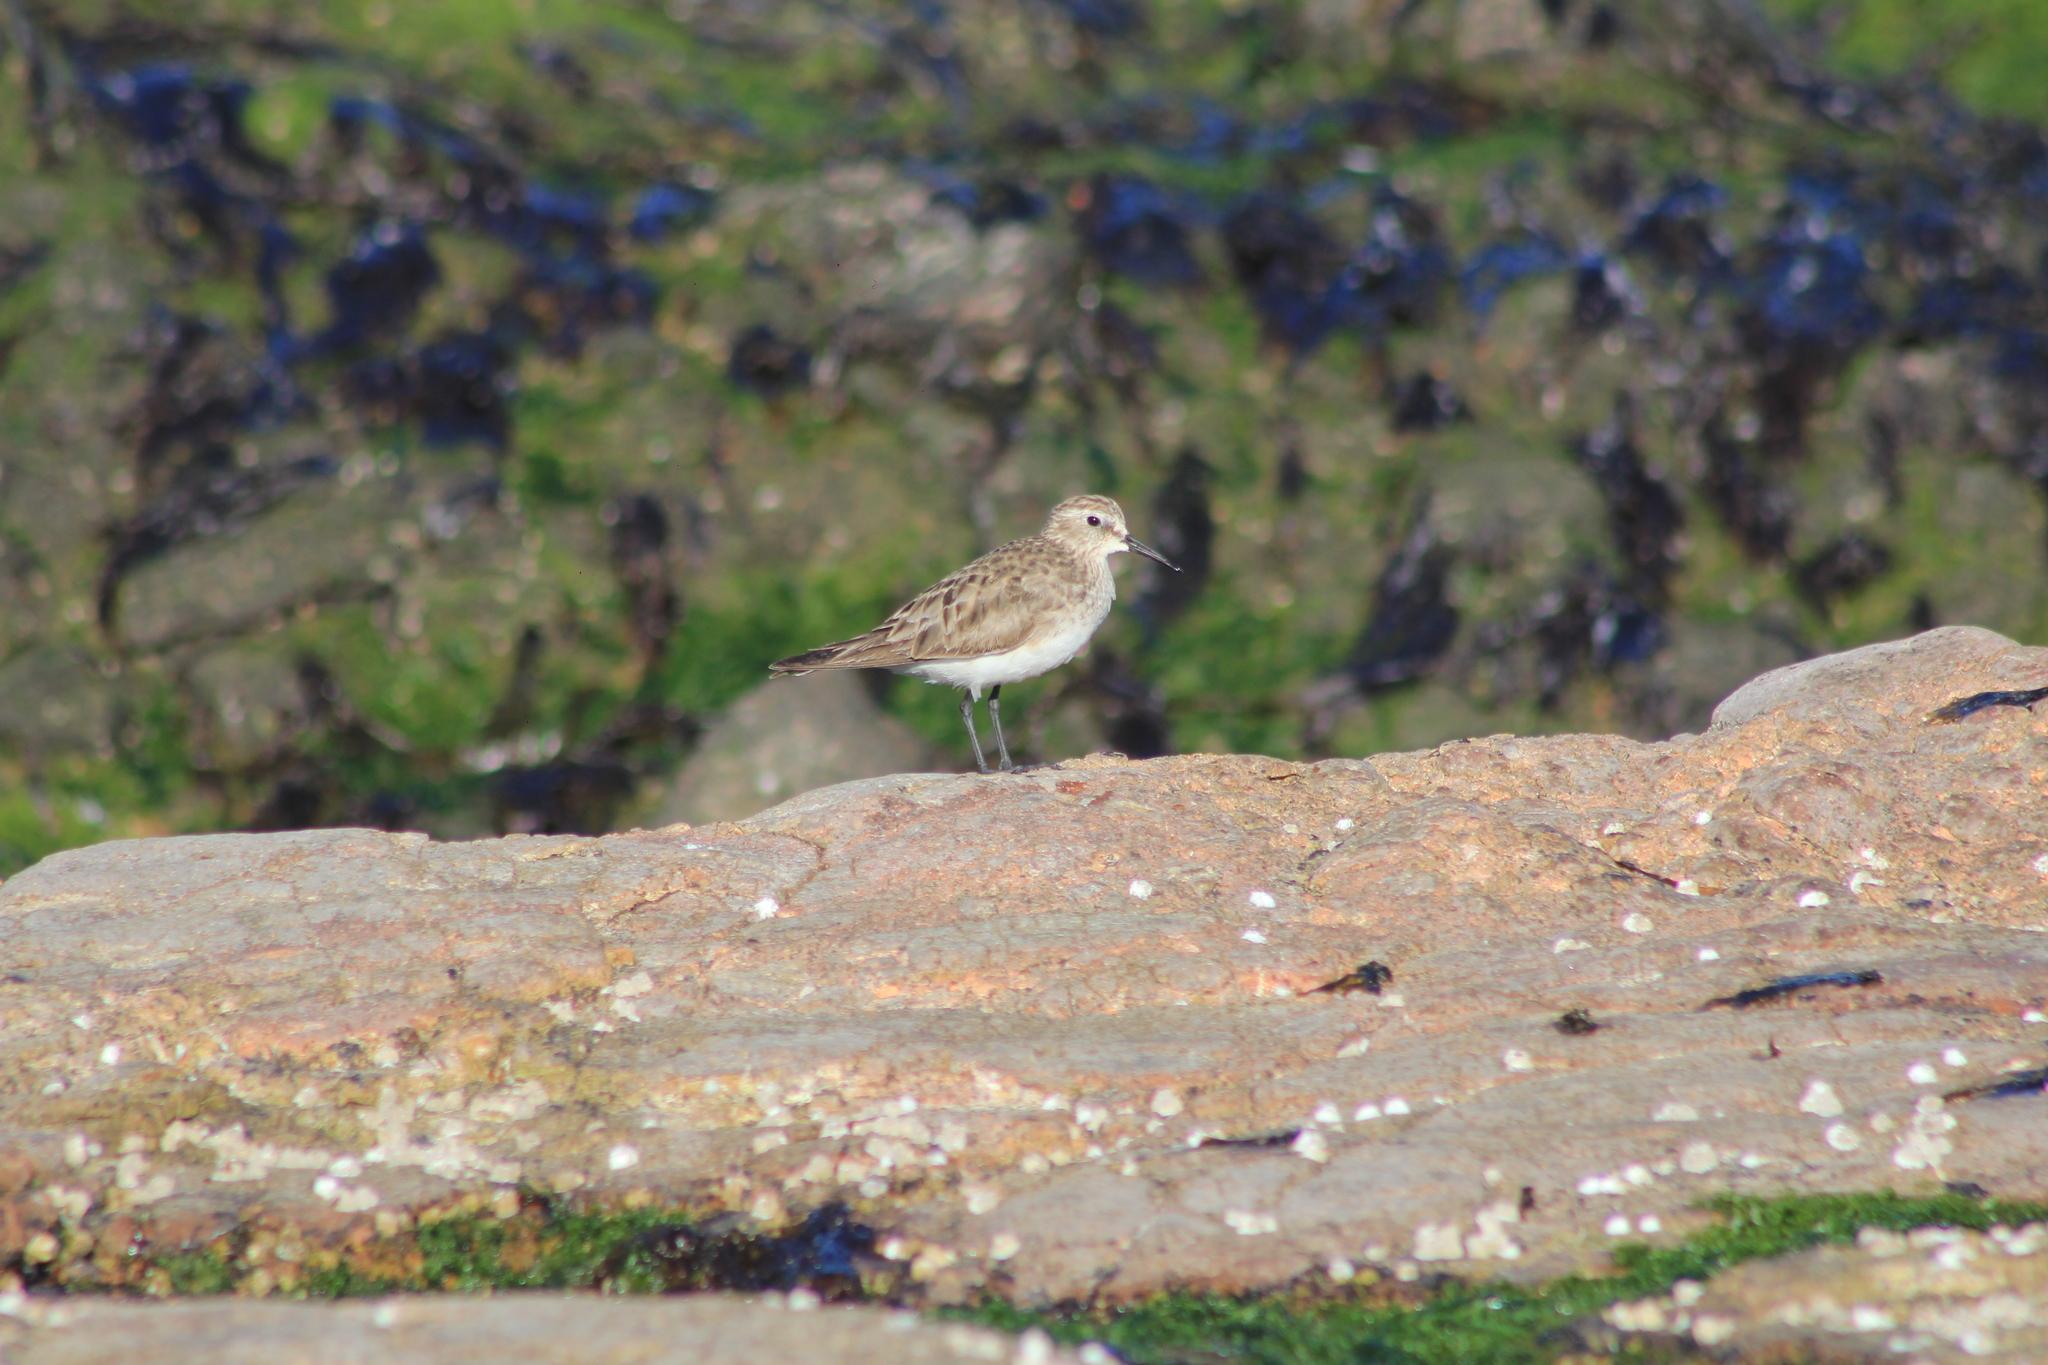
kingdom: Animalia
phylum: Chordata
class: Aves
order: Charadriiformes
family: Scolopacidae
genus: Calidris
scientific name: Calidris bairdii
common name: Baird's sandpiper
